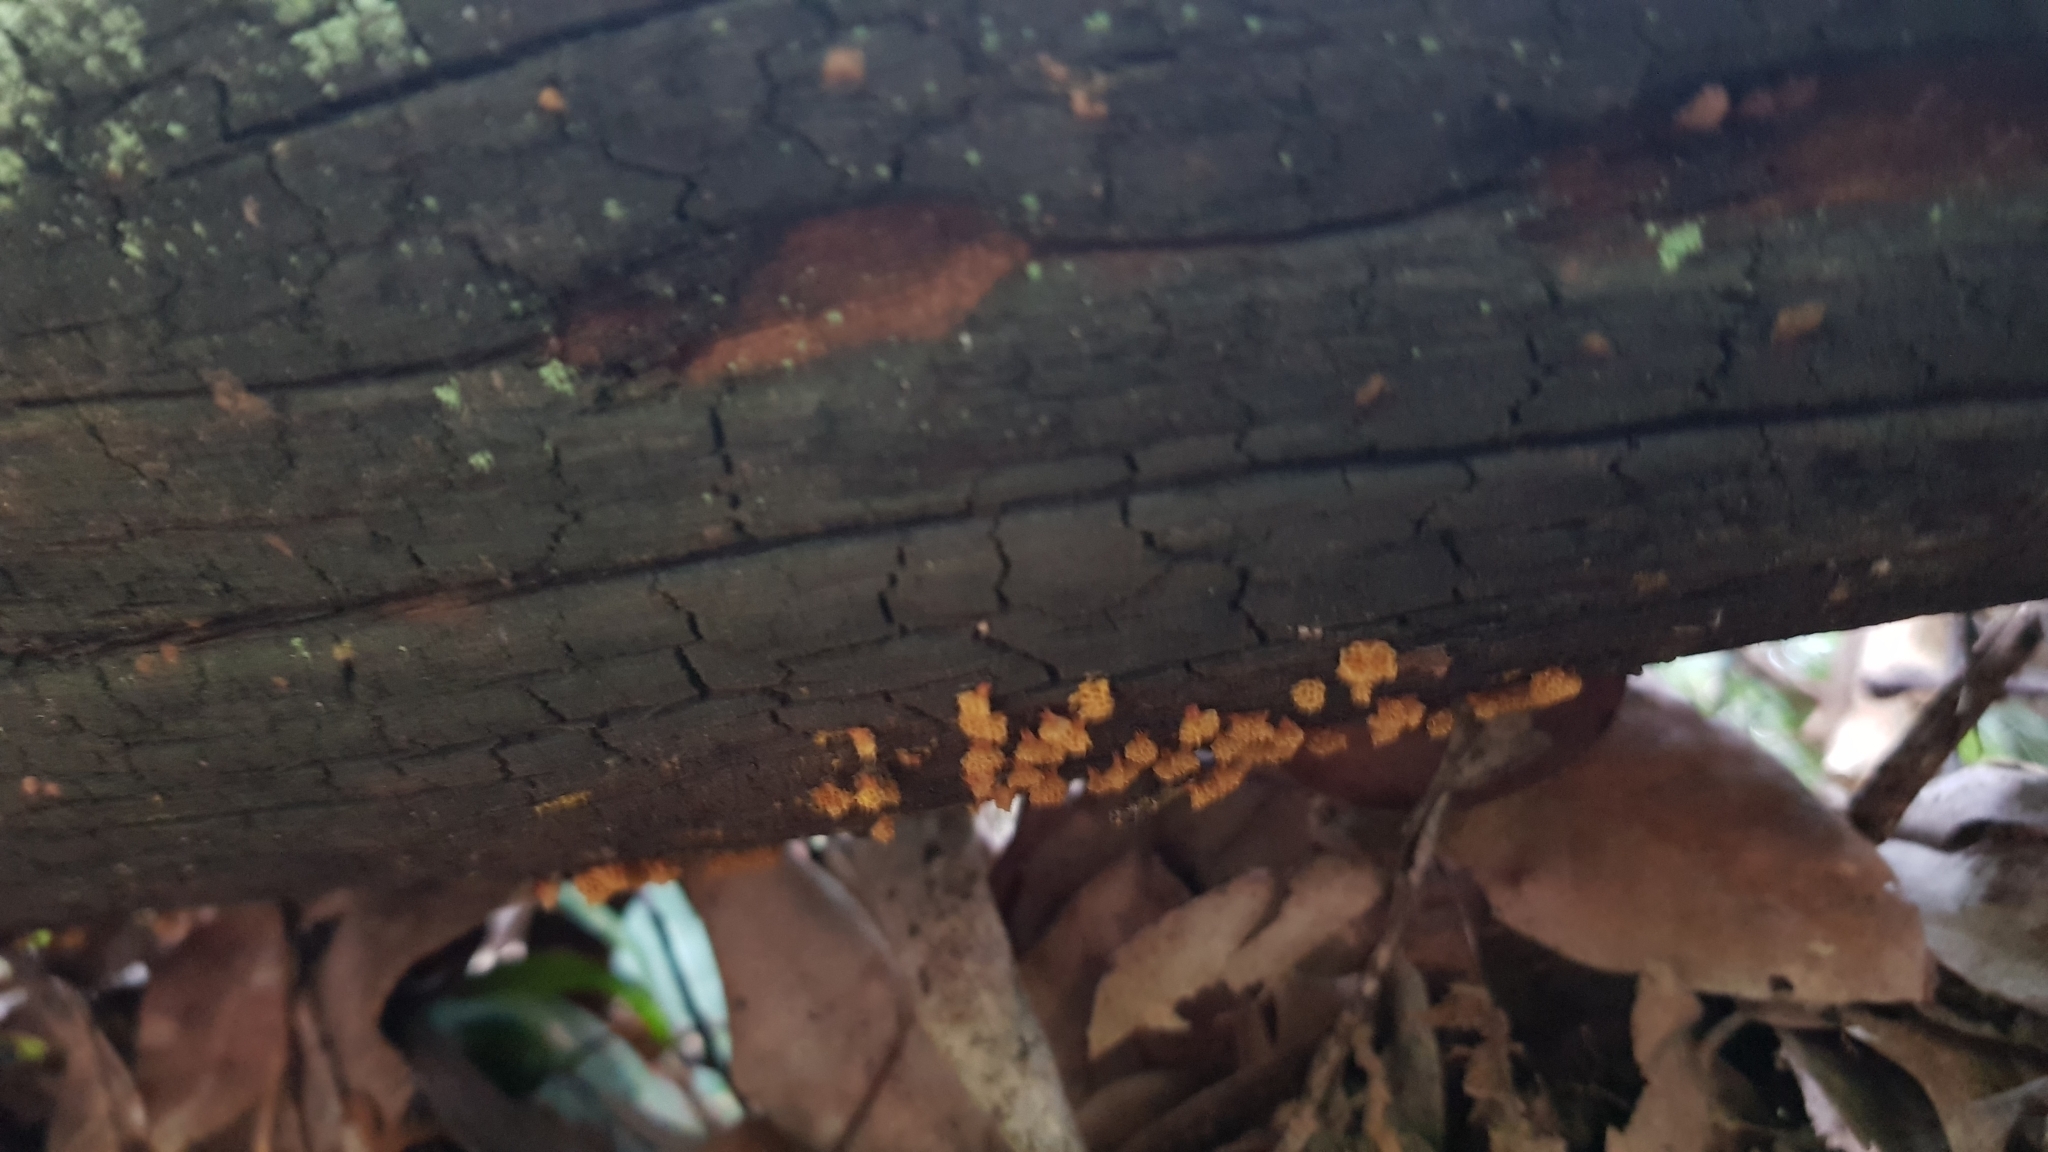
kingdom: Protozoa
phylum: Mycetozoa
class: Myxomycetes
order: Trichiales
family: Trichiaceae
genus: Oligonema
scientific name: Oligonema verrucosum
